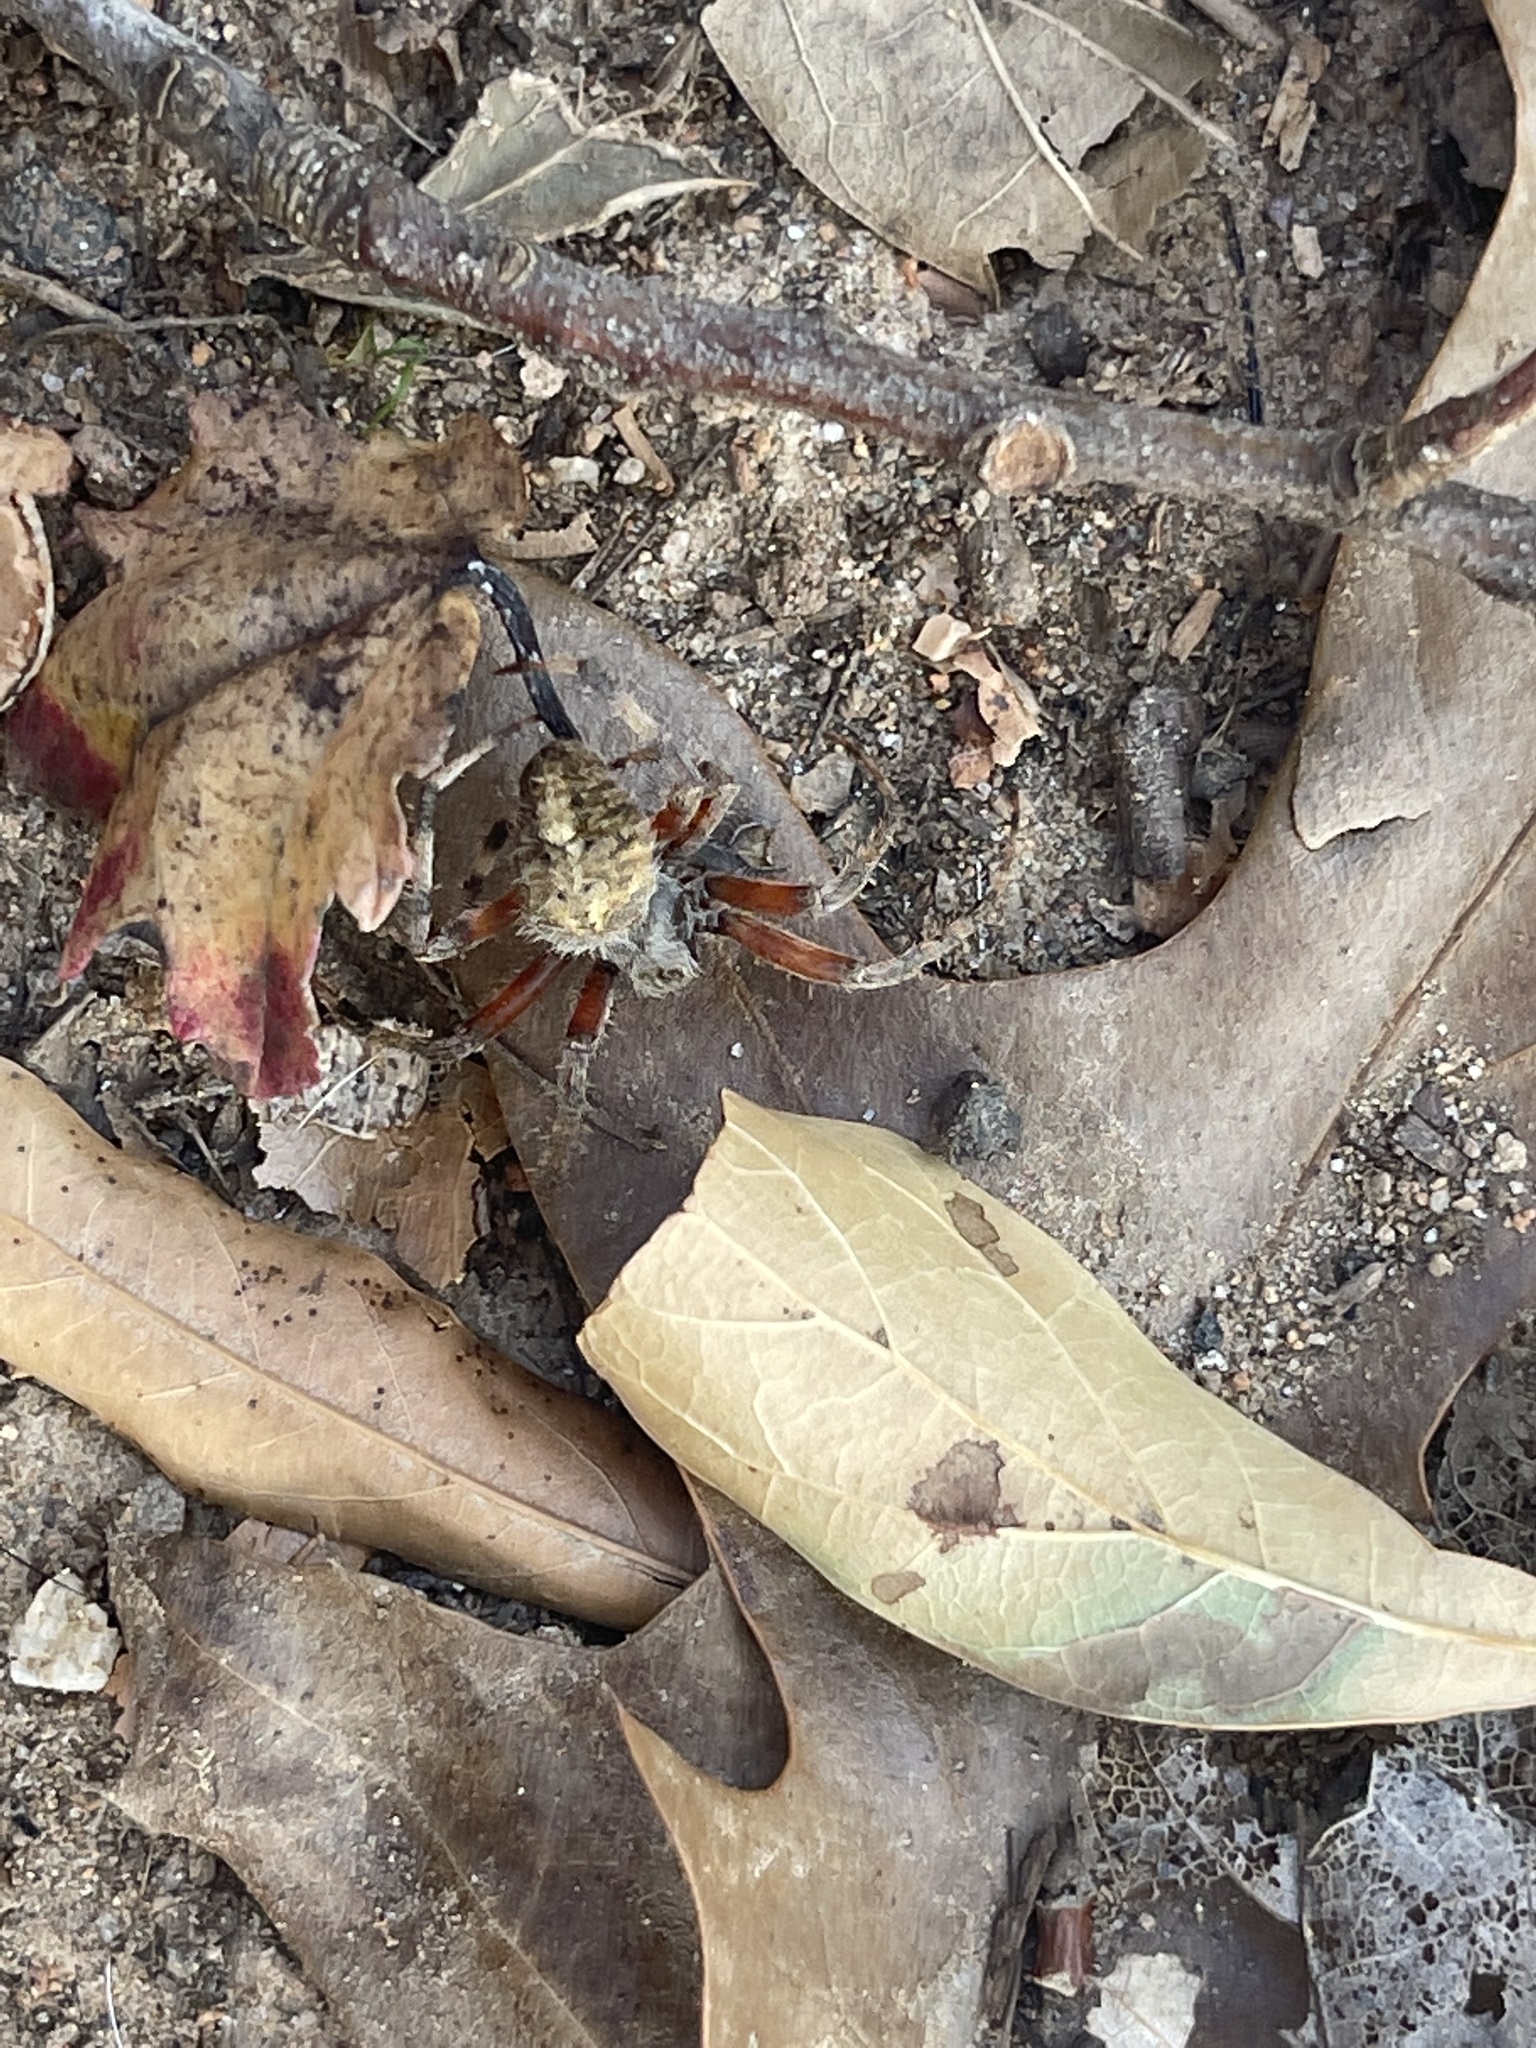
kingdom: Animalia
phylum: Arthropoda
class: Arachnida
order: Araneae
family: Araneidae
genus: Neoscona
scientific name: Neoscona crucifera
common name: Spotted orbweaver
